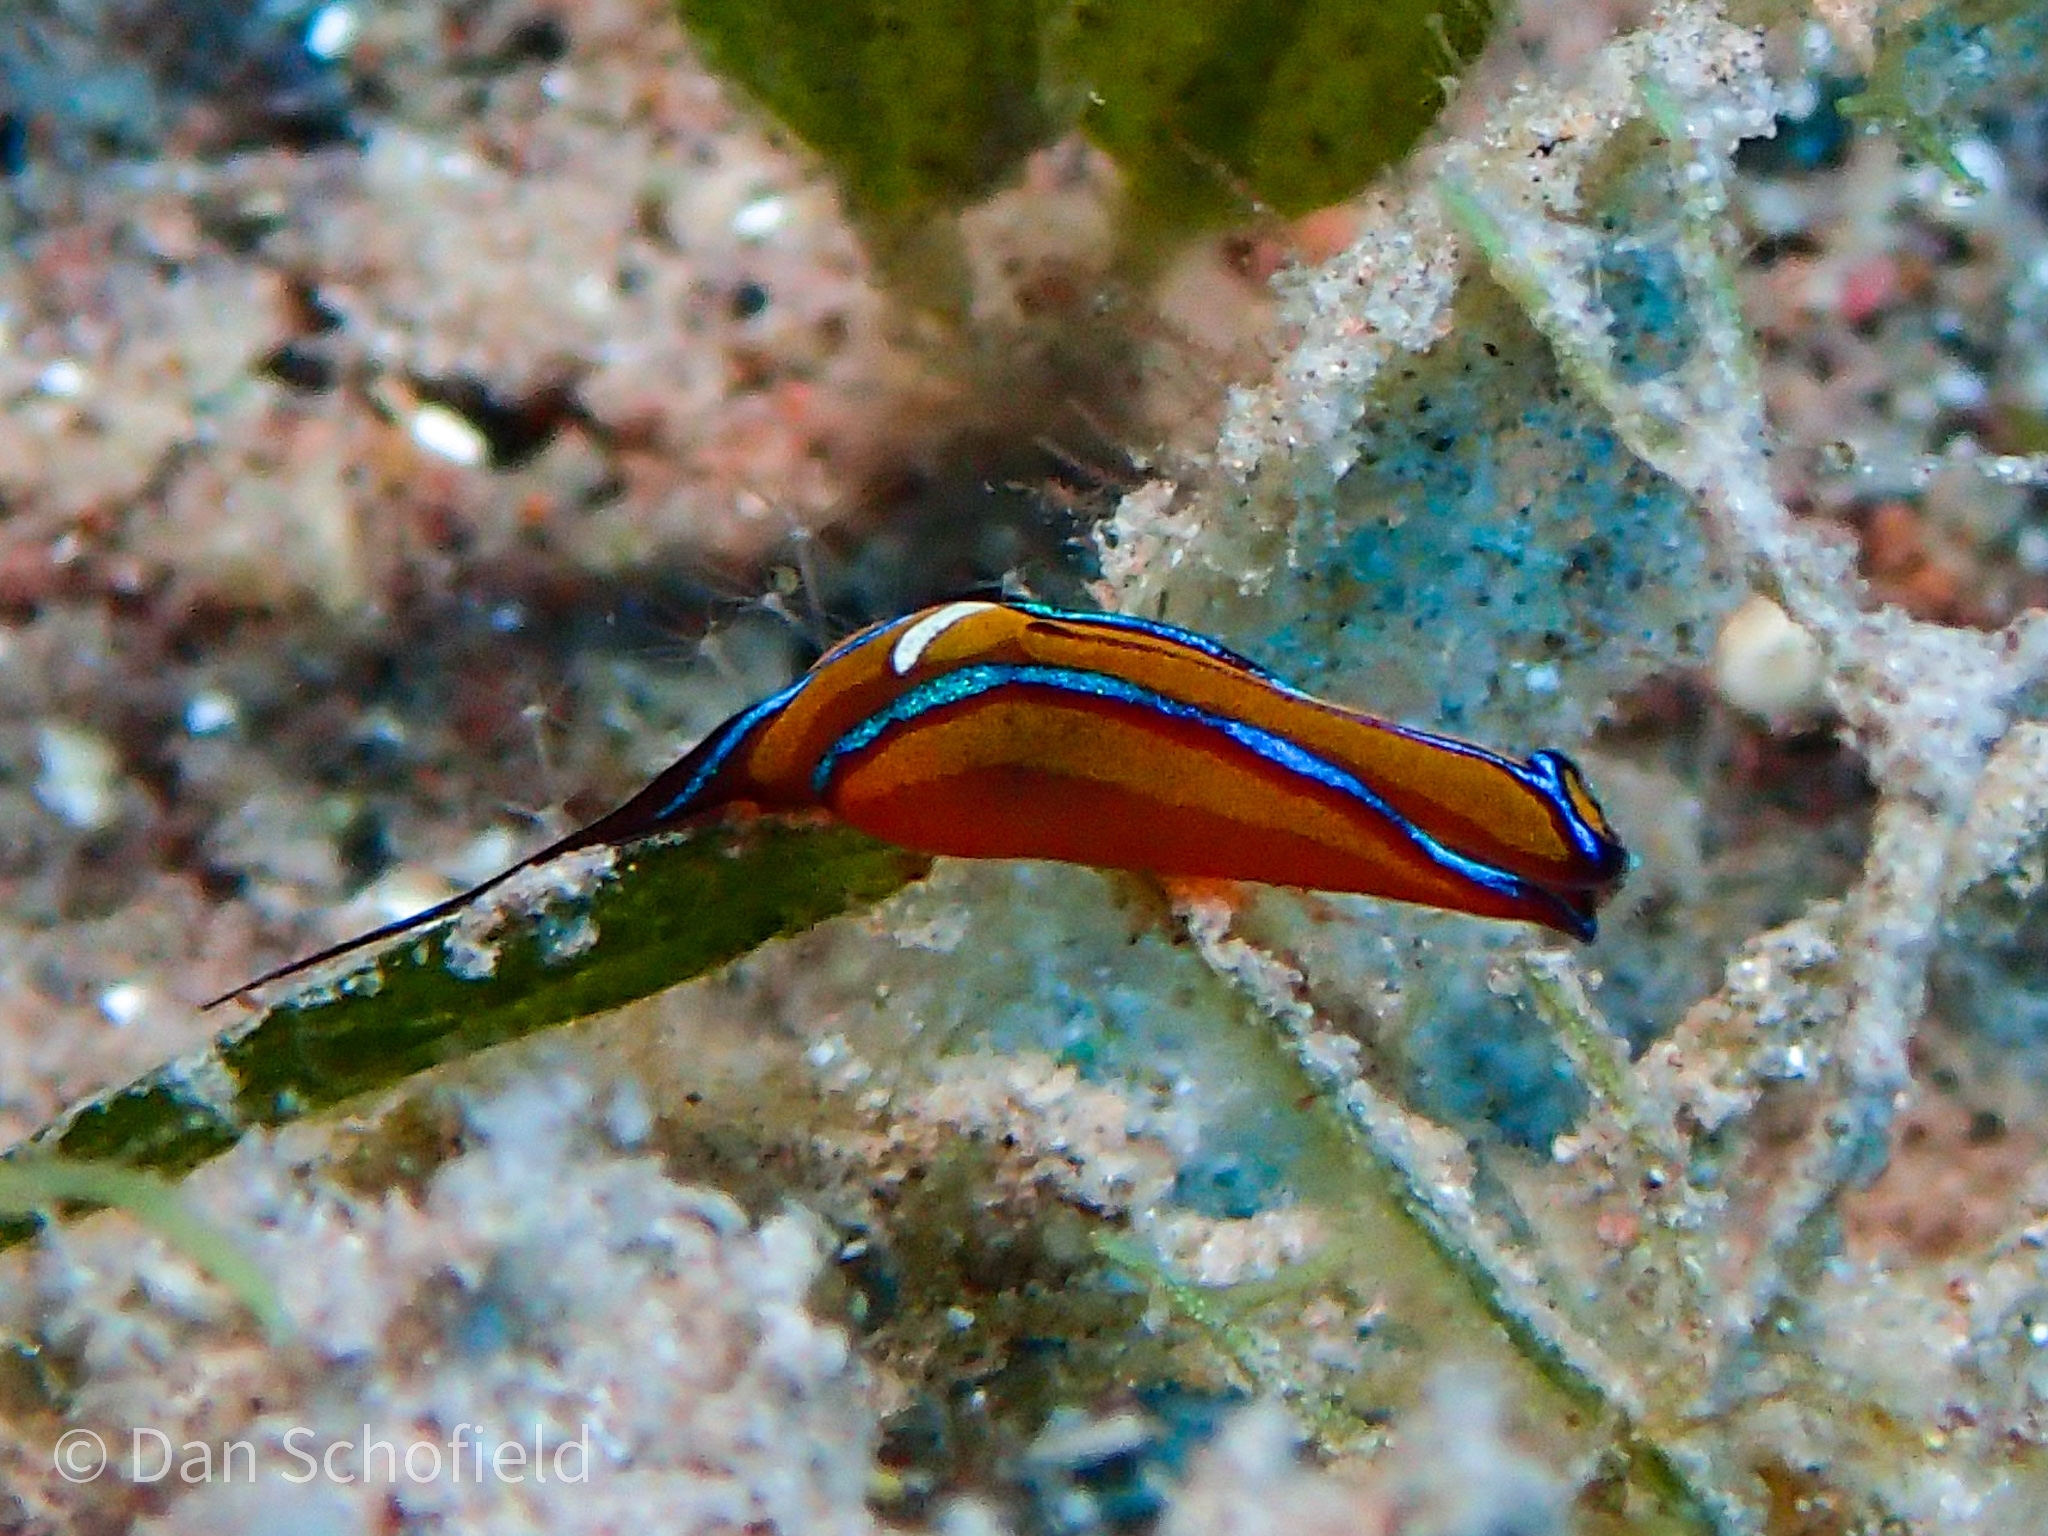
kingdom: Animalia
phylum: Mollusca
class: Gastropoda
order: Cephalaspidea
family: Aglajidae
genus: Chelidonura
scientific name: Chelidonura hirundinina
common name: Leech headshield slug
